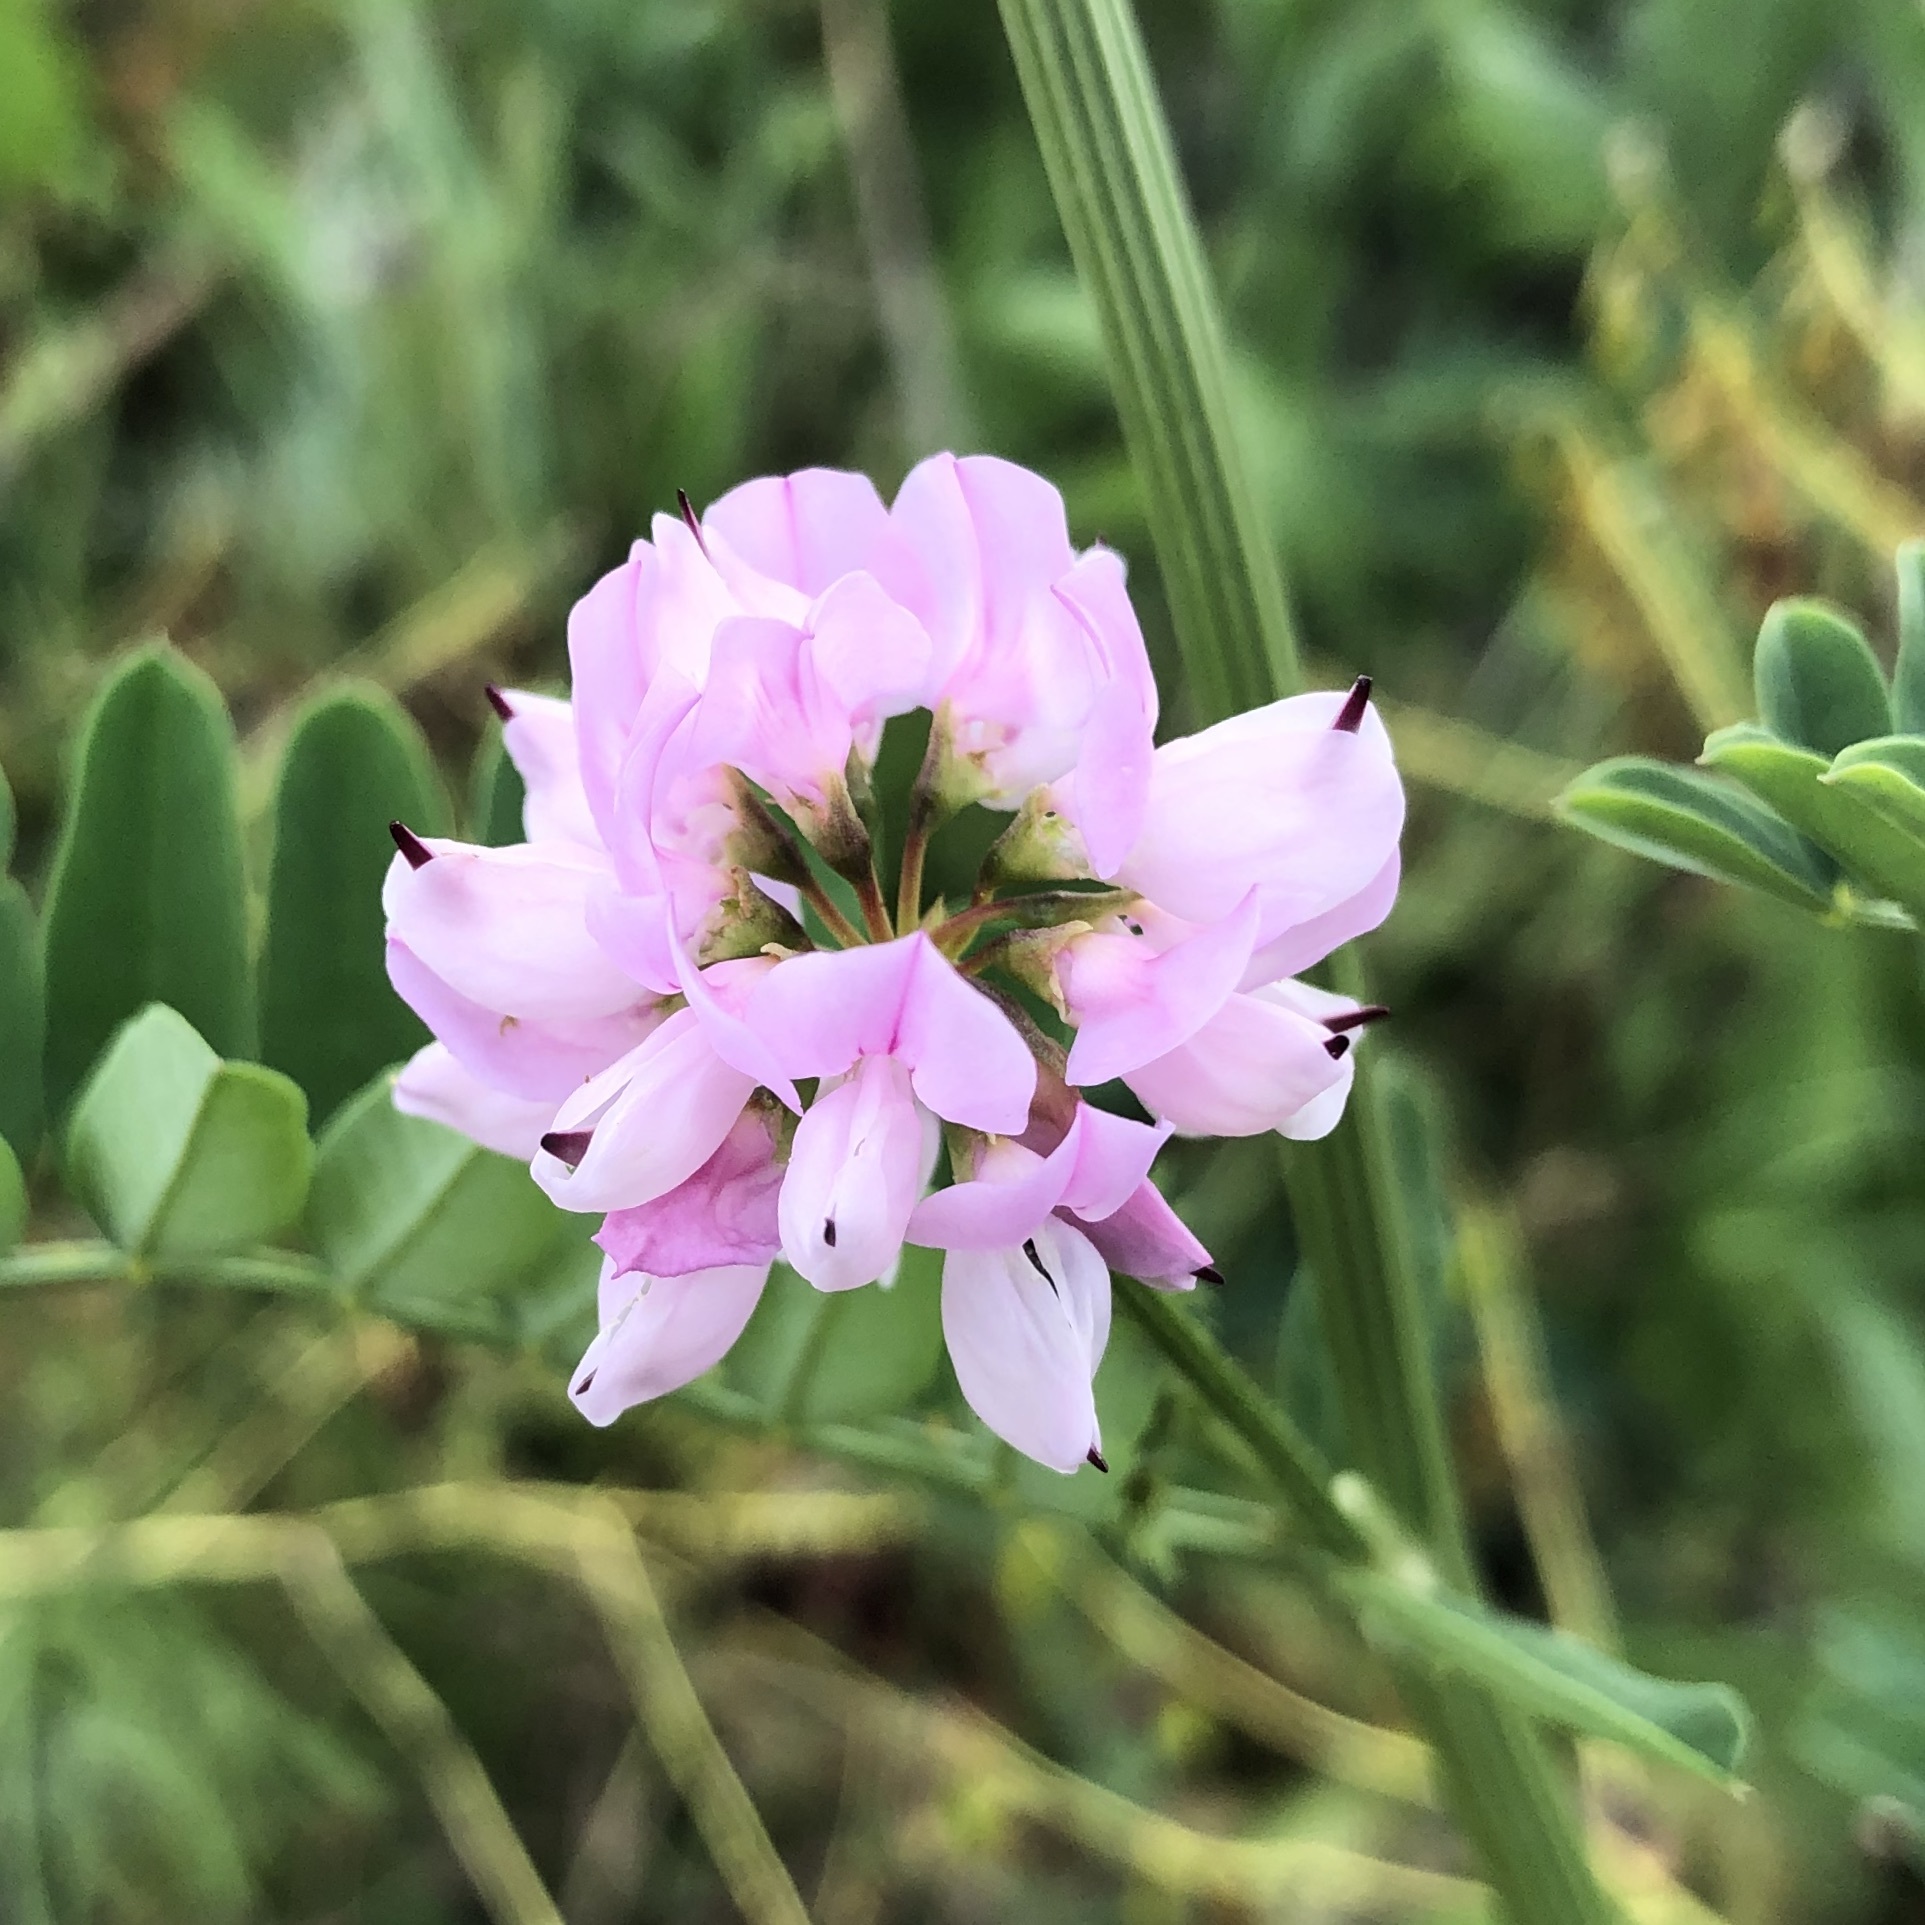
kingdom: Plantae
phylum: Tracheophyta
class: Magnoliopsida
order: Fabales
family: Fabaceae
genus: Coronilla
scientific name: Coronilla varia
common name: Crownvetch
